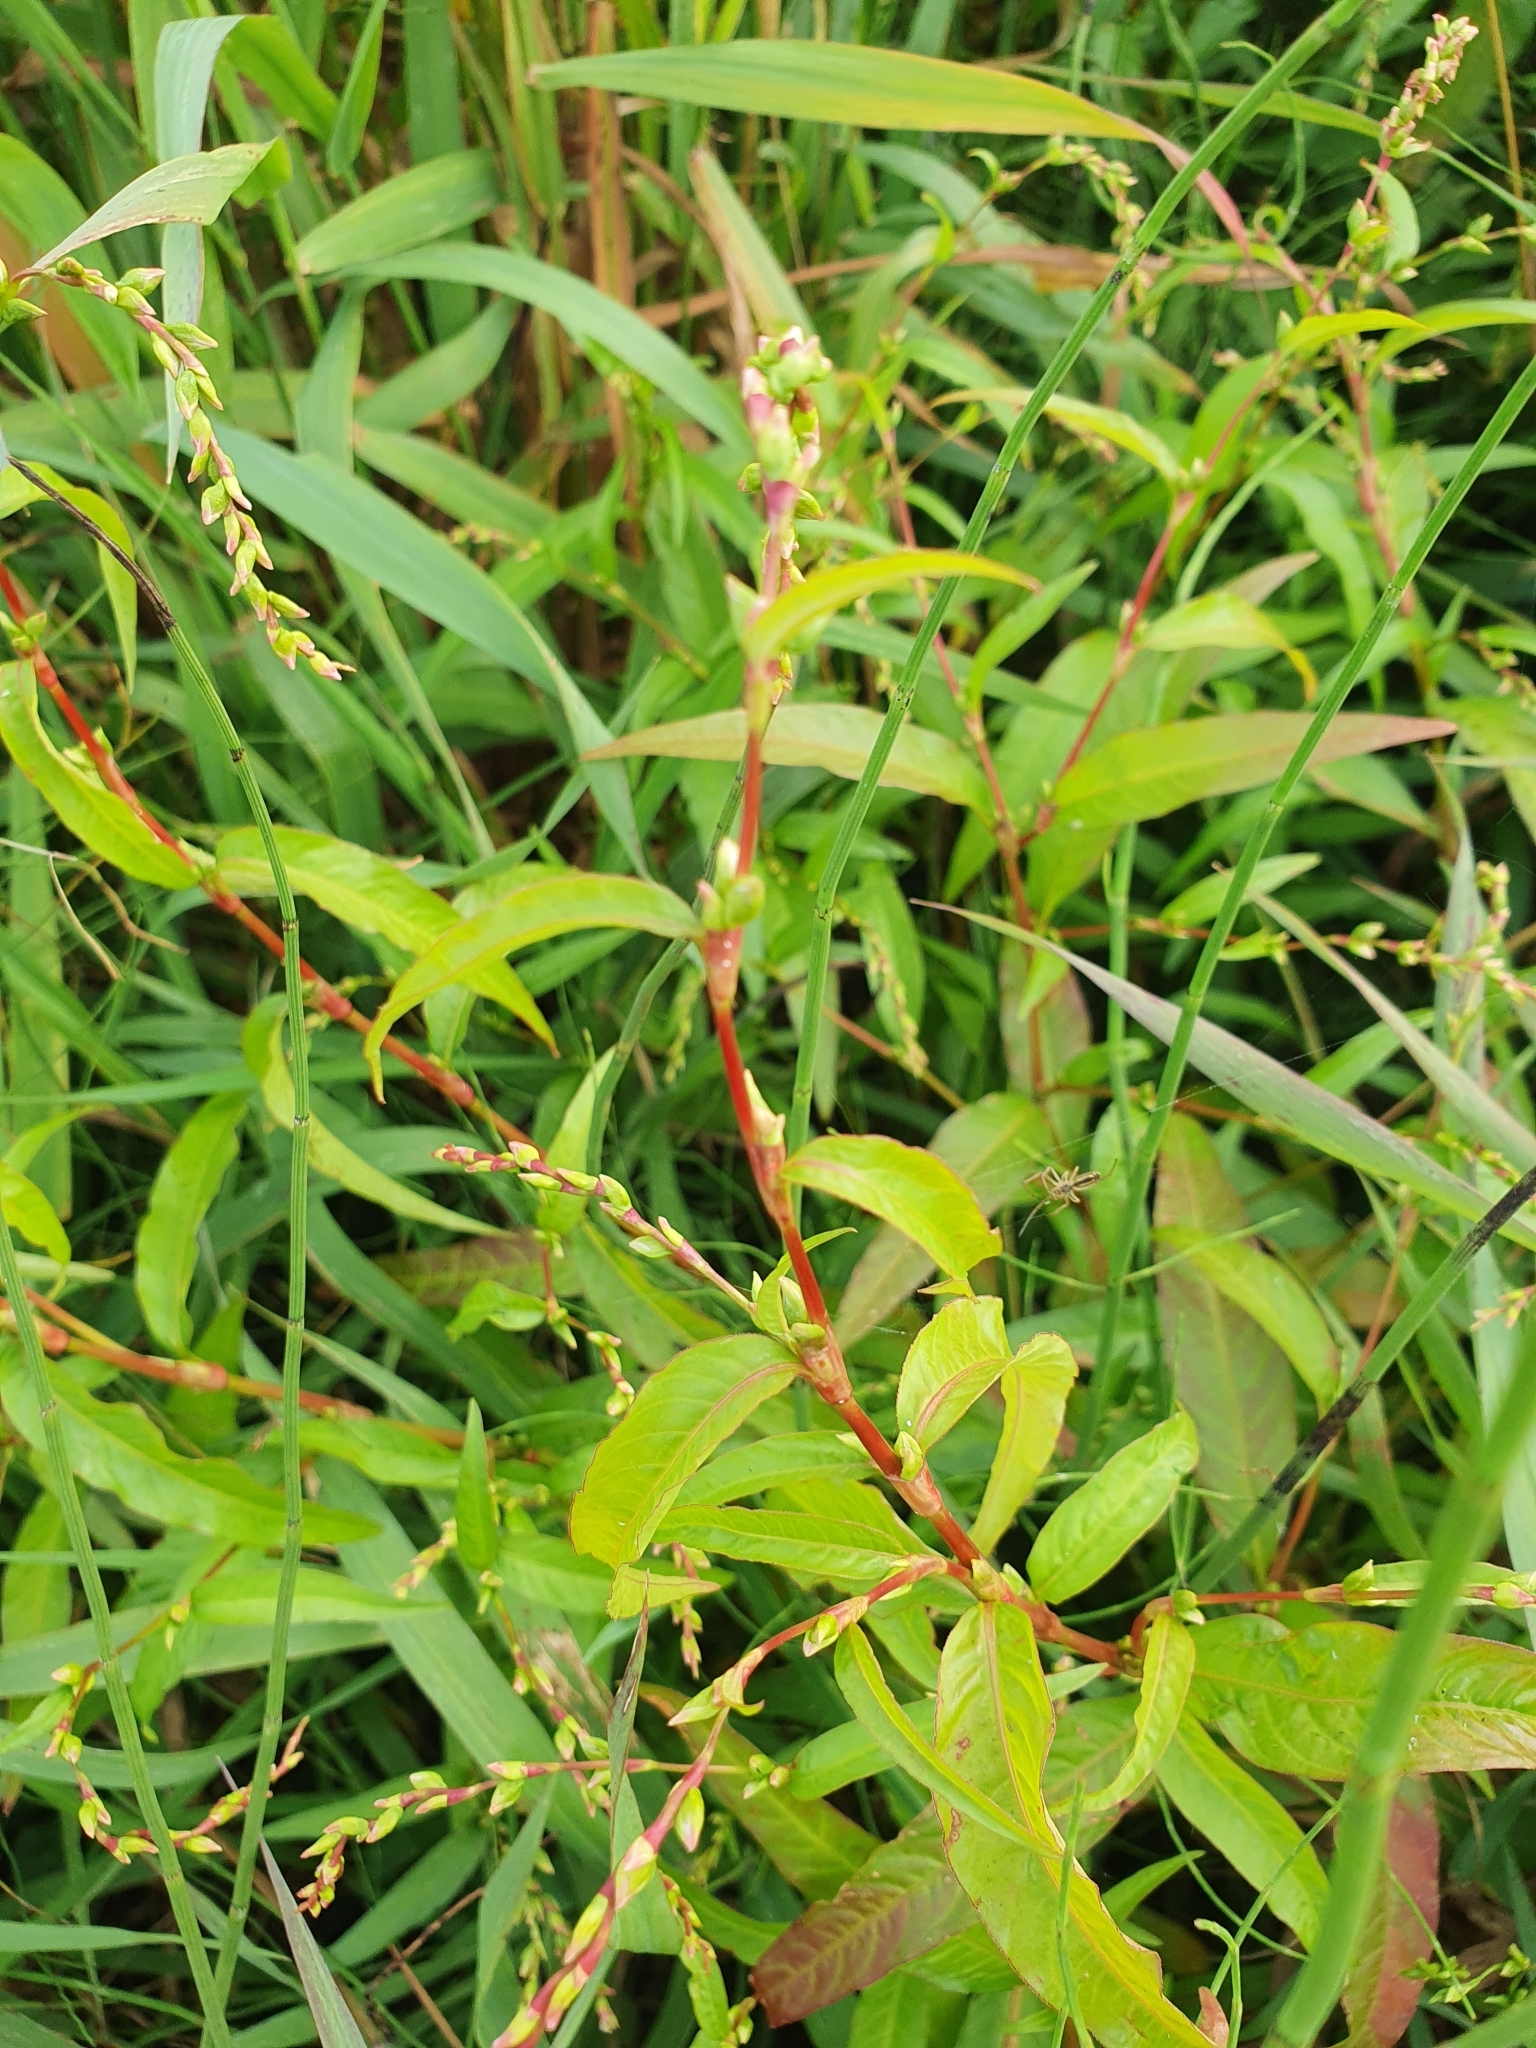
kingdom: Plantae
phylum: Tracheophyta
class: Magnoliopsida
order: Caryophyllales
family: Polygonaceae
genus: Persicaria
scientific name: Persicaria hydropiper
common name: Water-pepper
